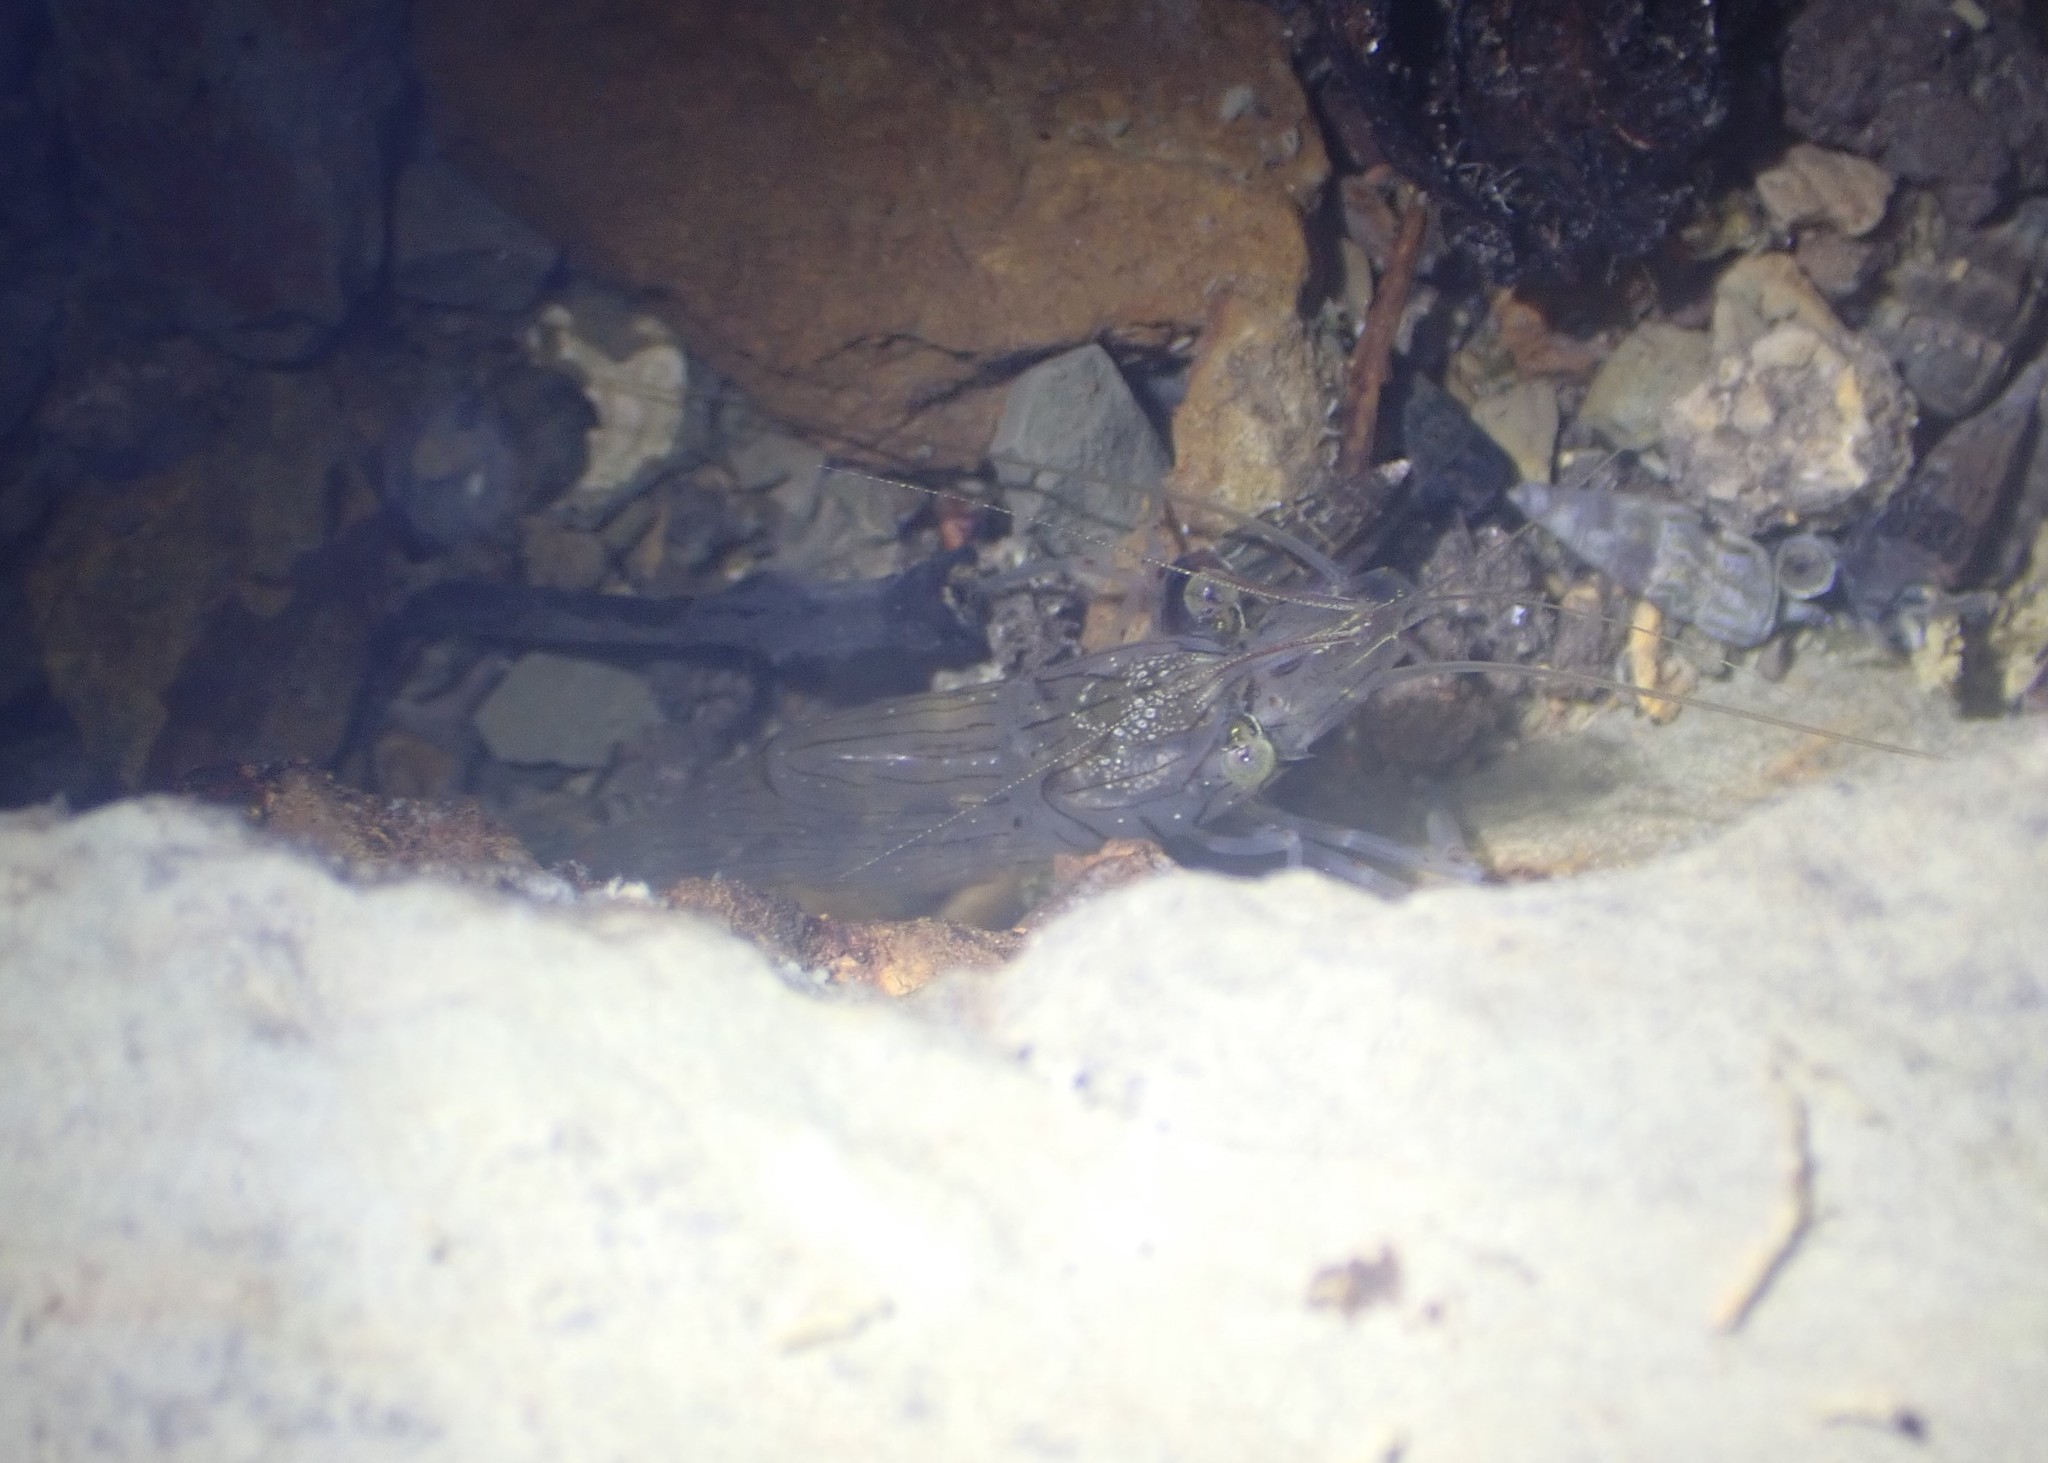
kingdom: Animalia
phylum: Arthropoda
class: Malacostraca
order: Decapoda
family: Palaemonidae
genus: Palaemon
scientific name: Palaemon affinis
